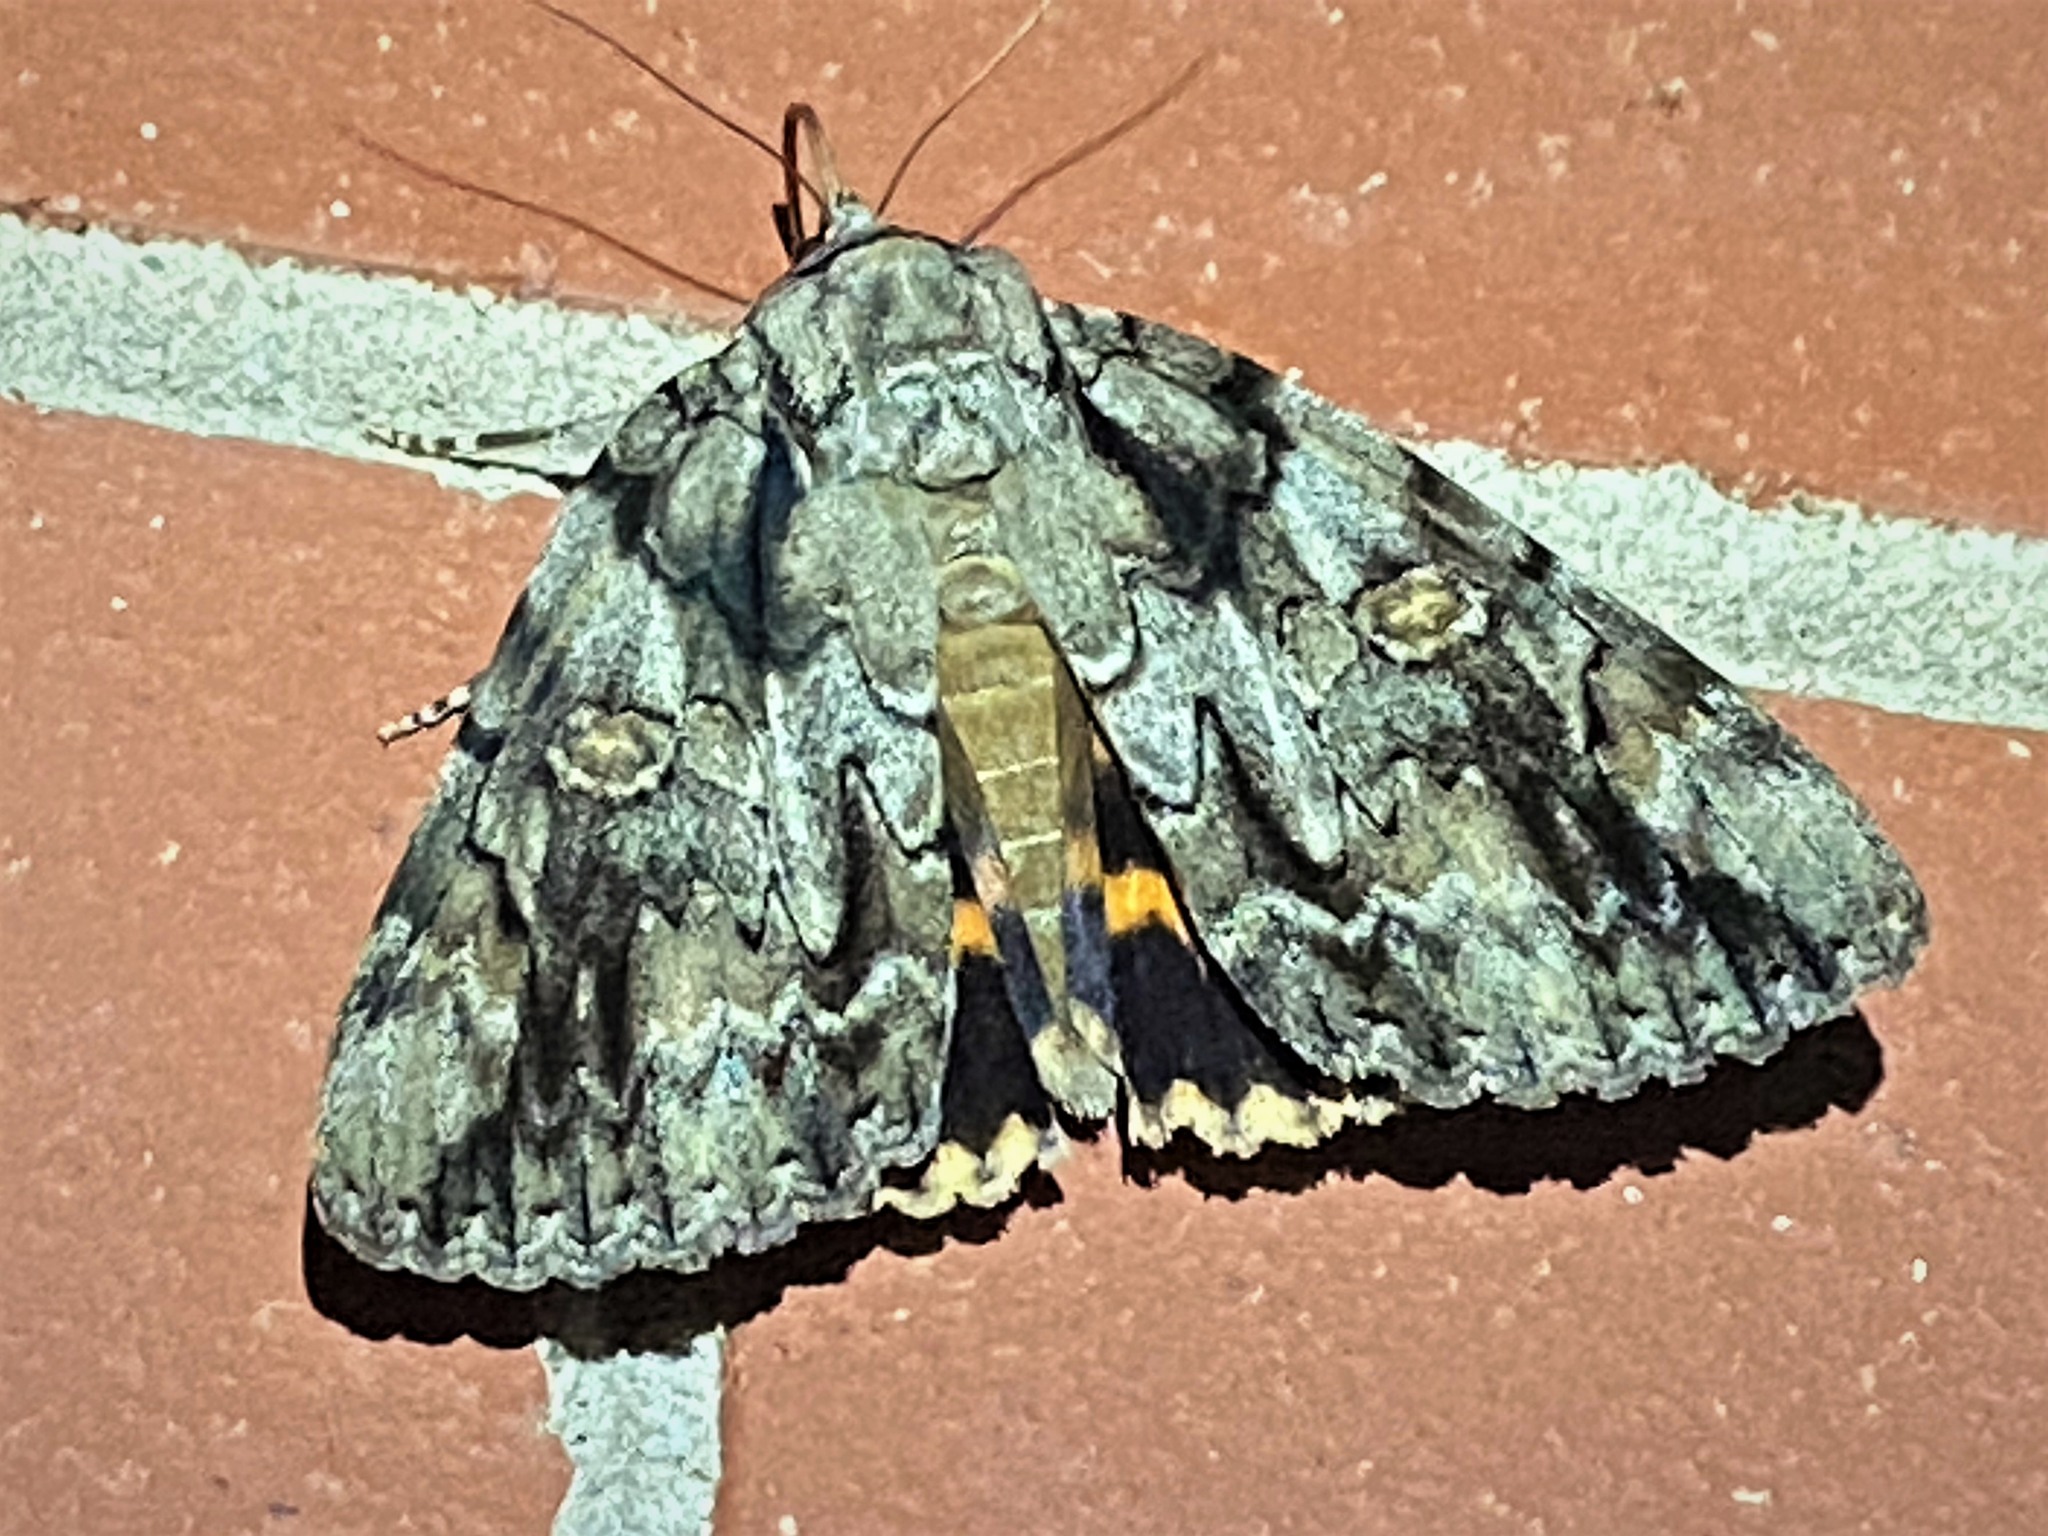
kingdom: Animalia
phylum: Arthropoda
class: Insecta
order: Lepidoptera
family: Erebidae
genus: Catocala
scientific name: Catocala neogama
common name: Bride underwing
